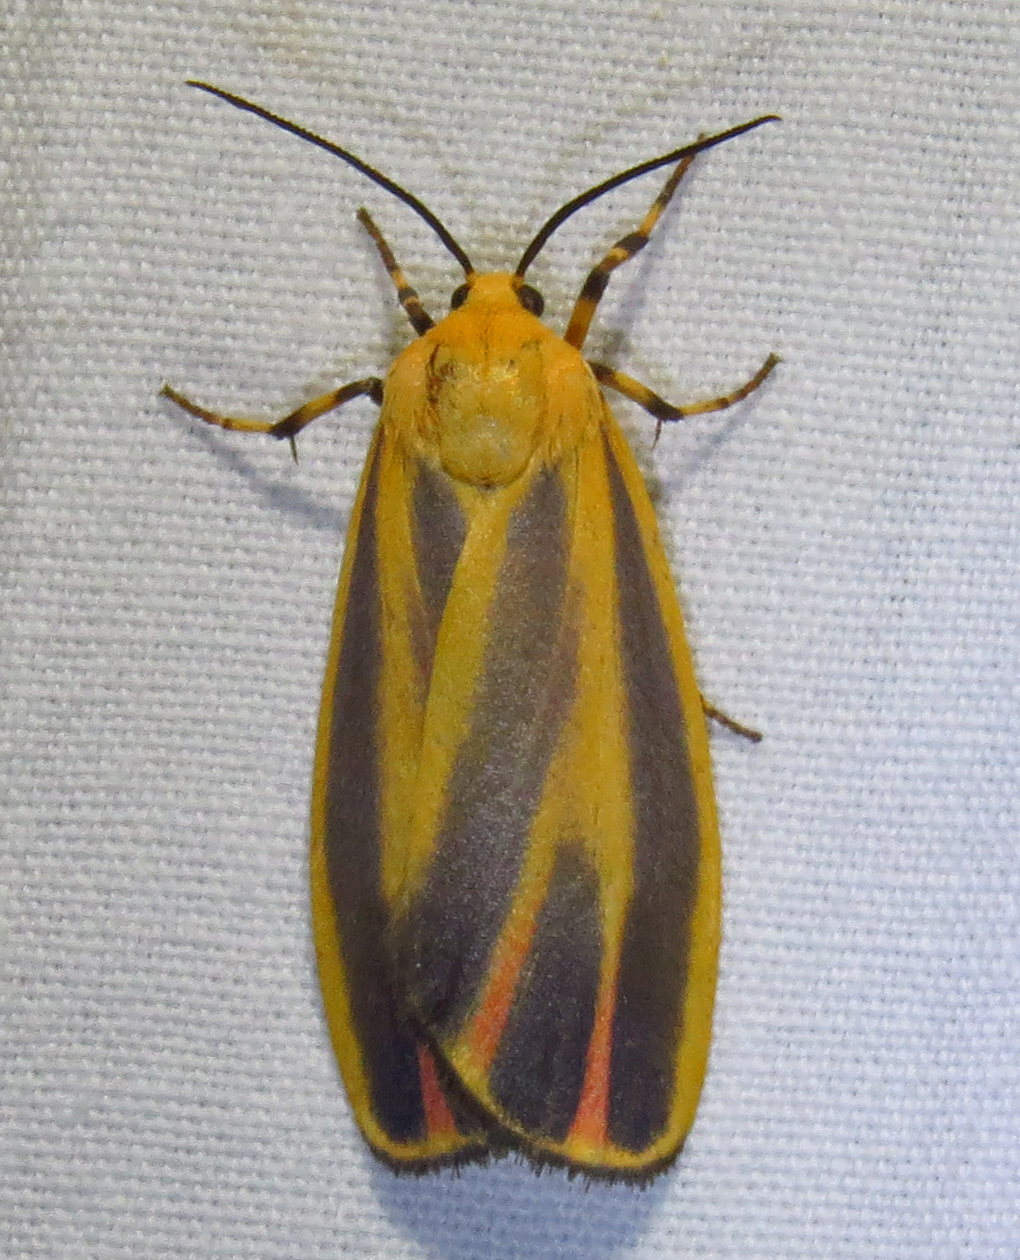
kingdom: Animalia
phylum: Arthropoda
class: Insecta
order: Lepidoptera
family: Erebidae
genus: Hypoprepia
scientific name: Hypoprepia fucosa
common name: Painted lichen moth
